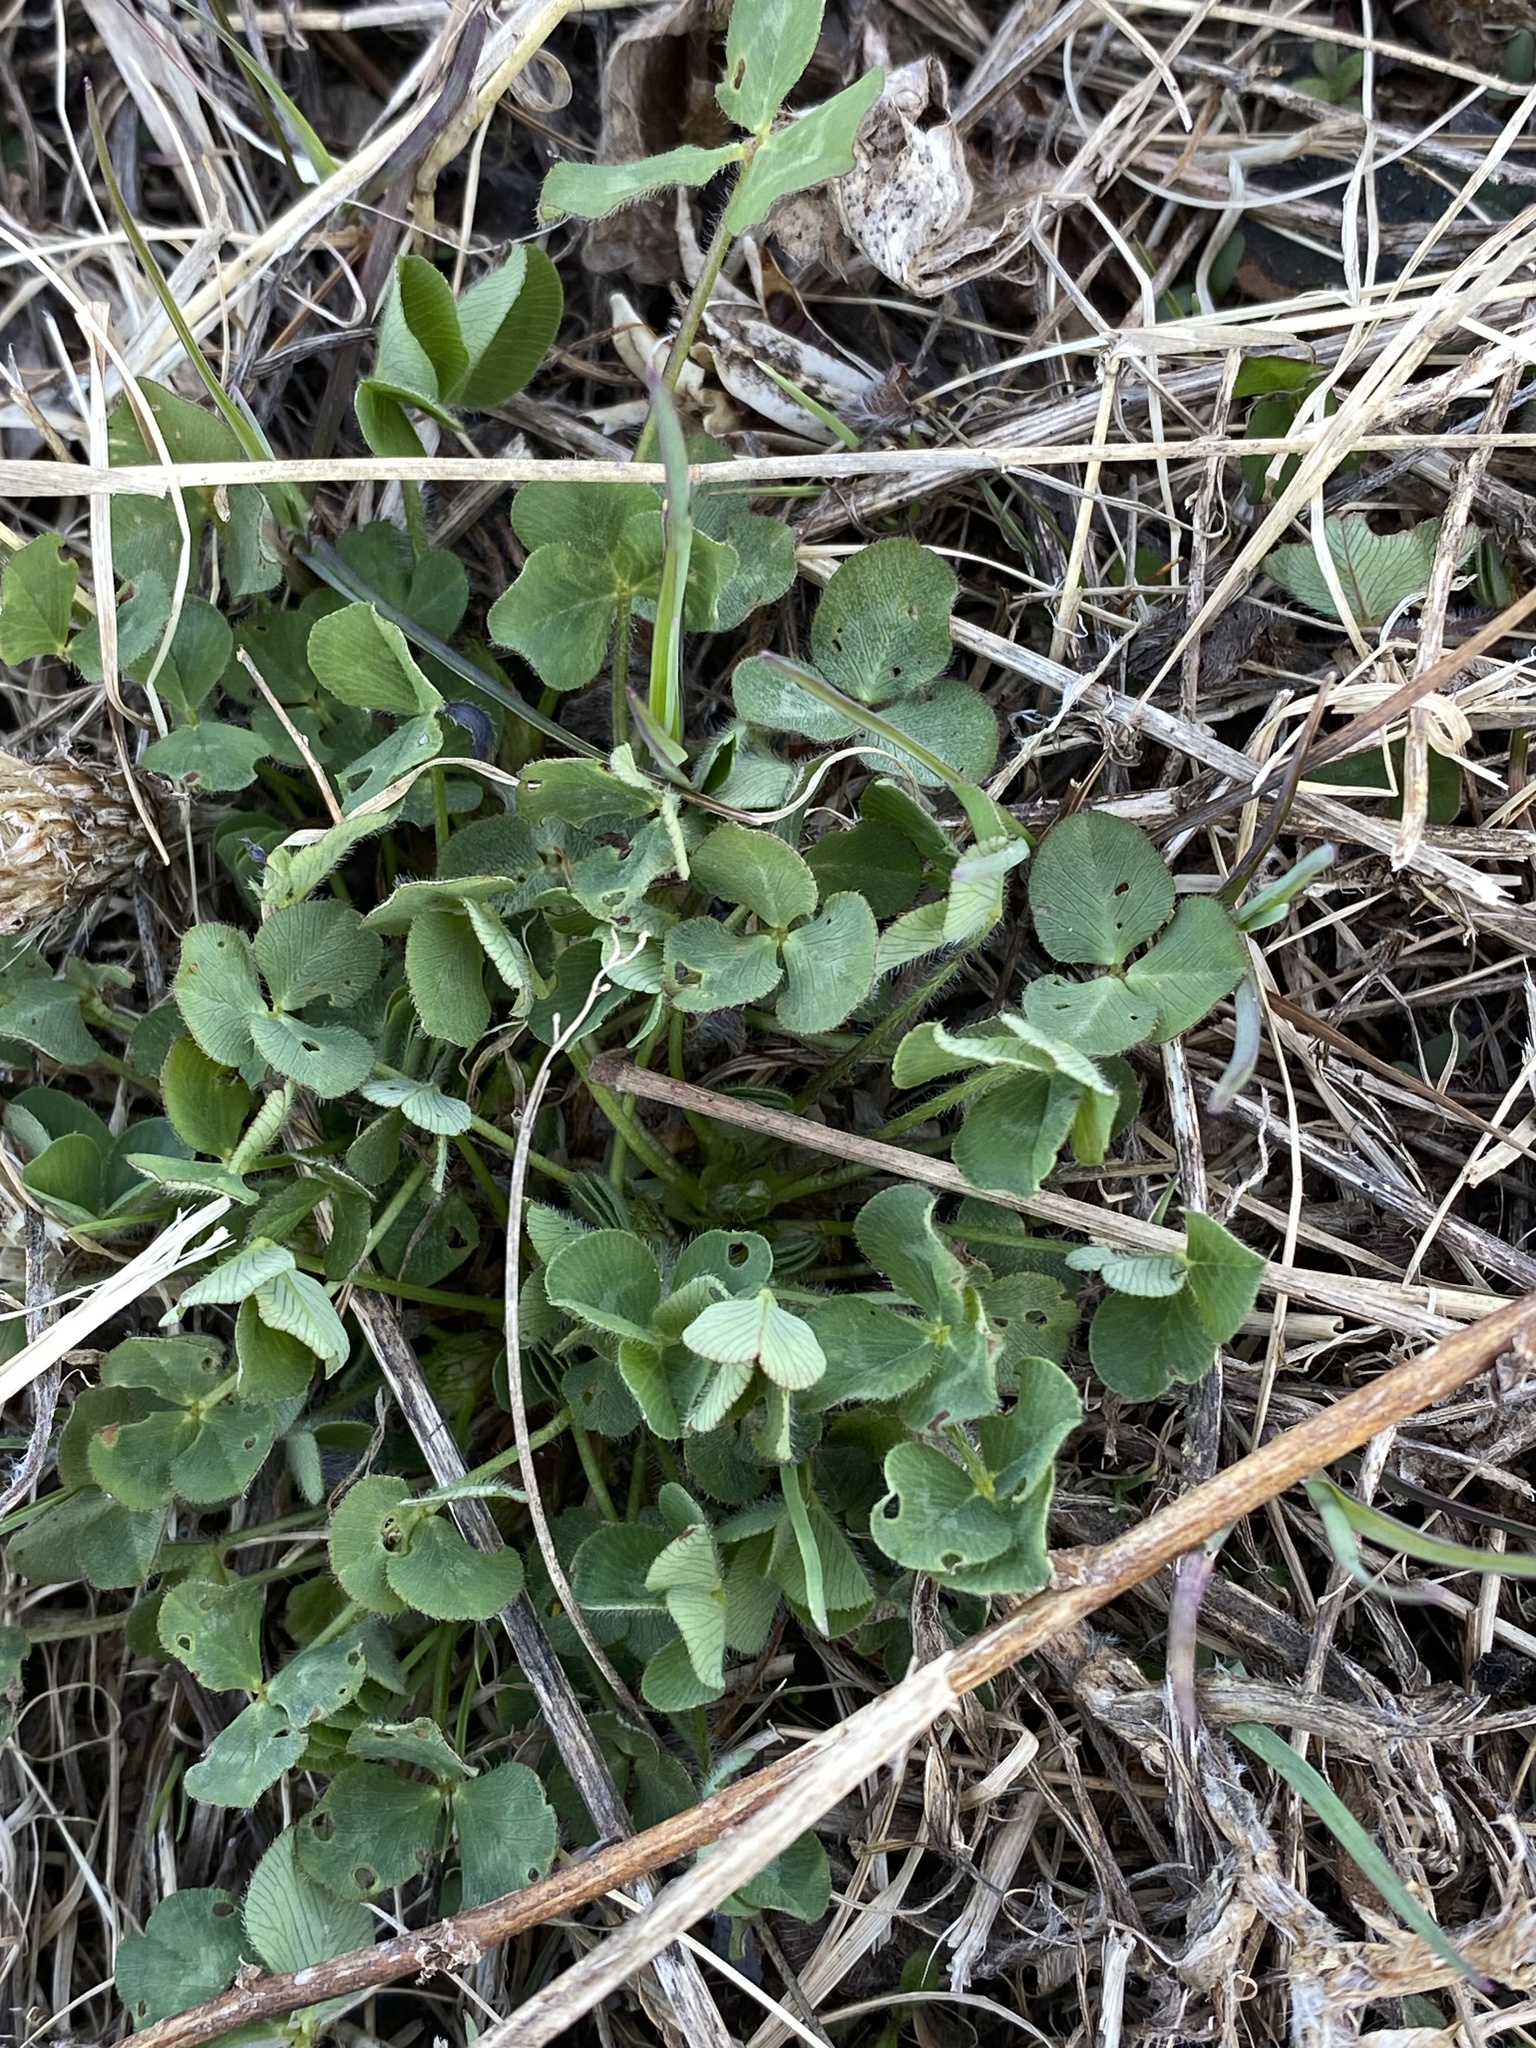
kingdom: Plantae
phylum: Tracheophyta
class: Magnoliopsida
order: Fabales
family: Fabaceae
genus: Trifolium
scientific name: Trifolium pratense
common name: Red clover
